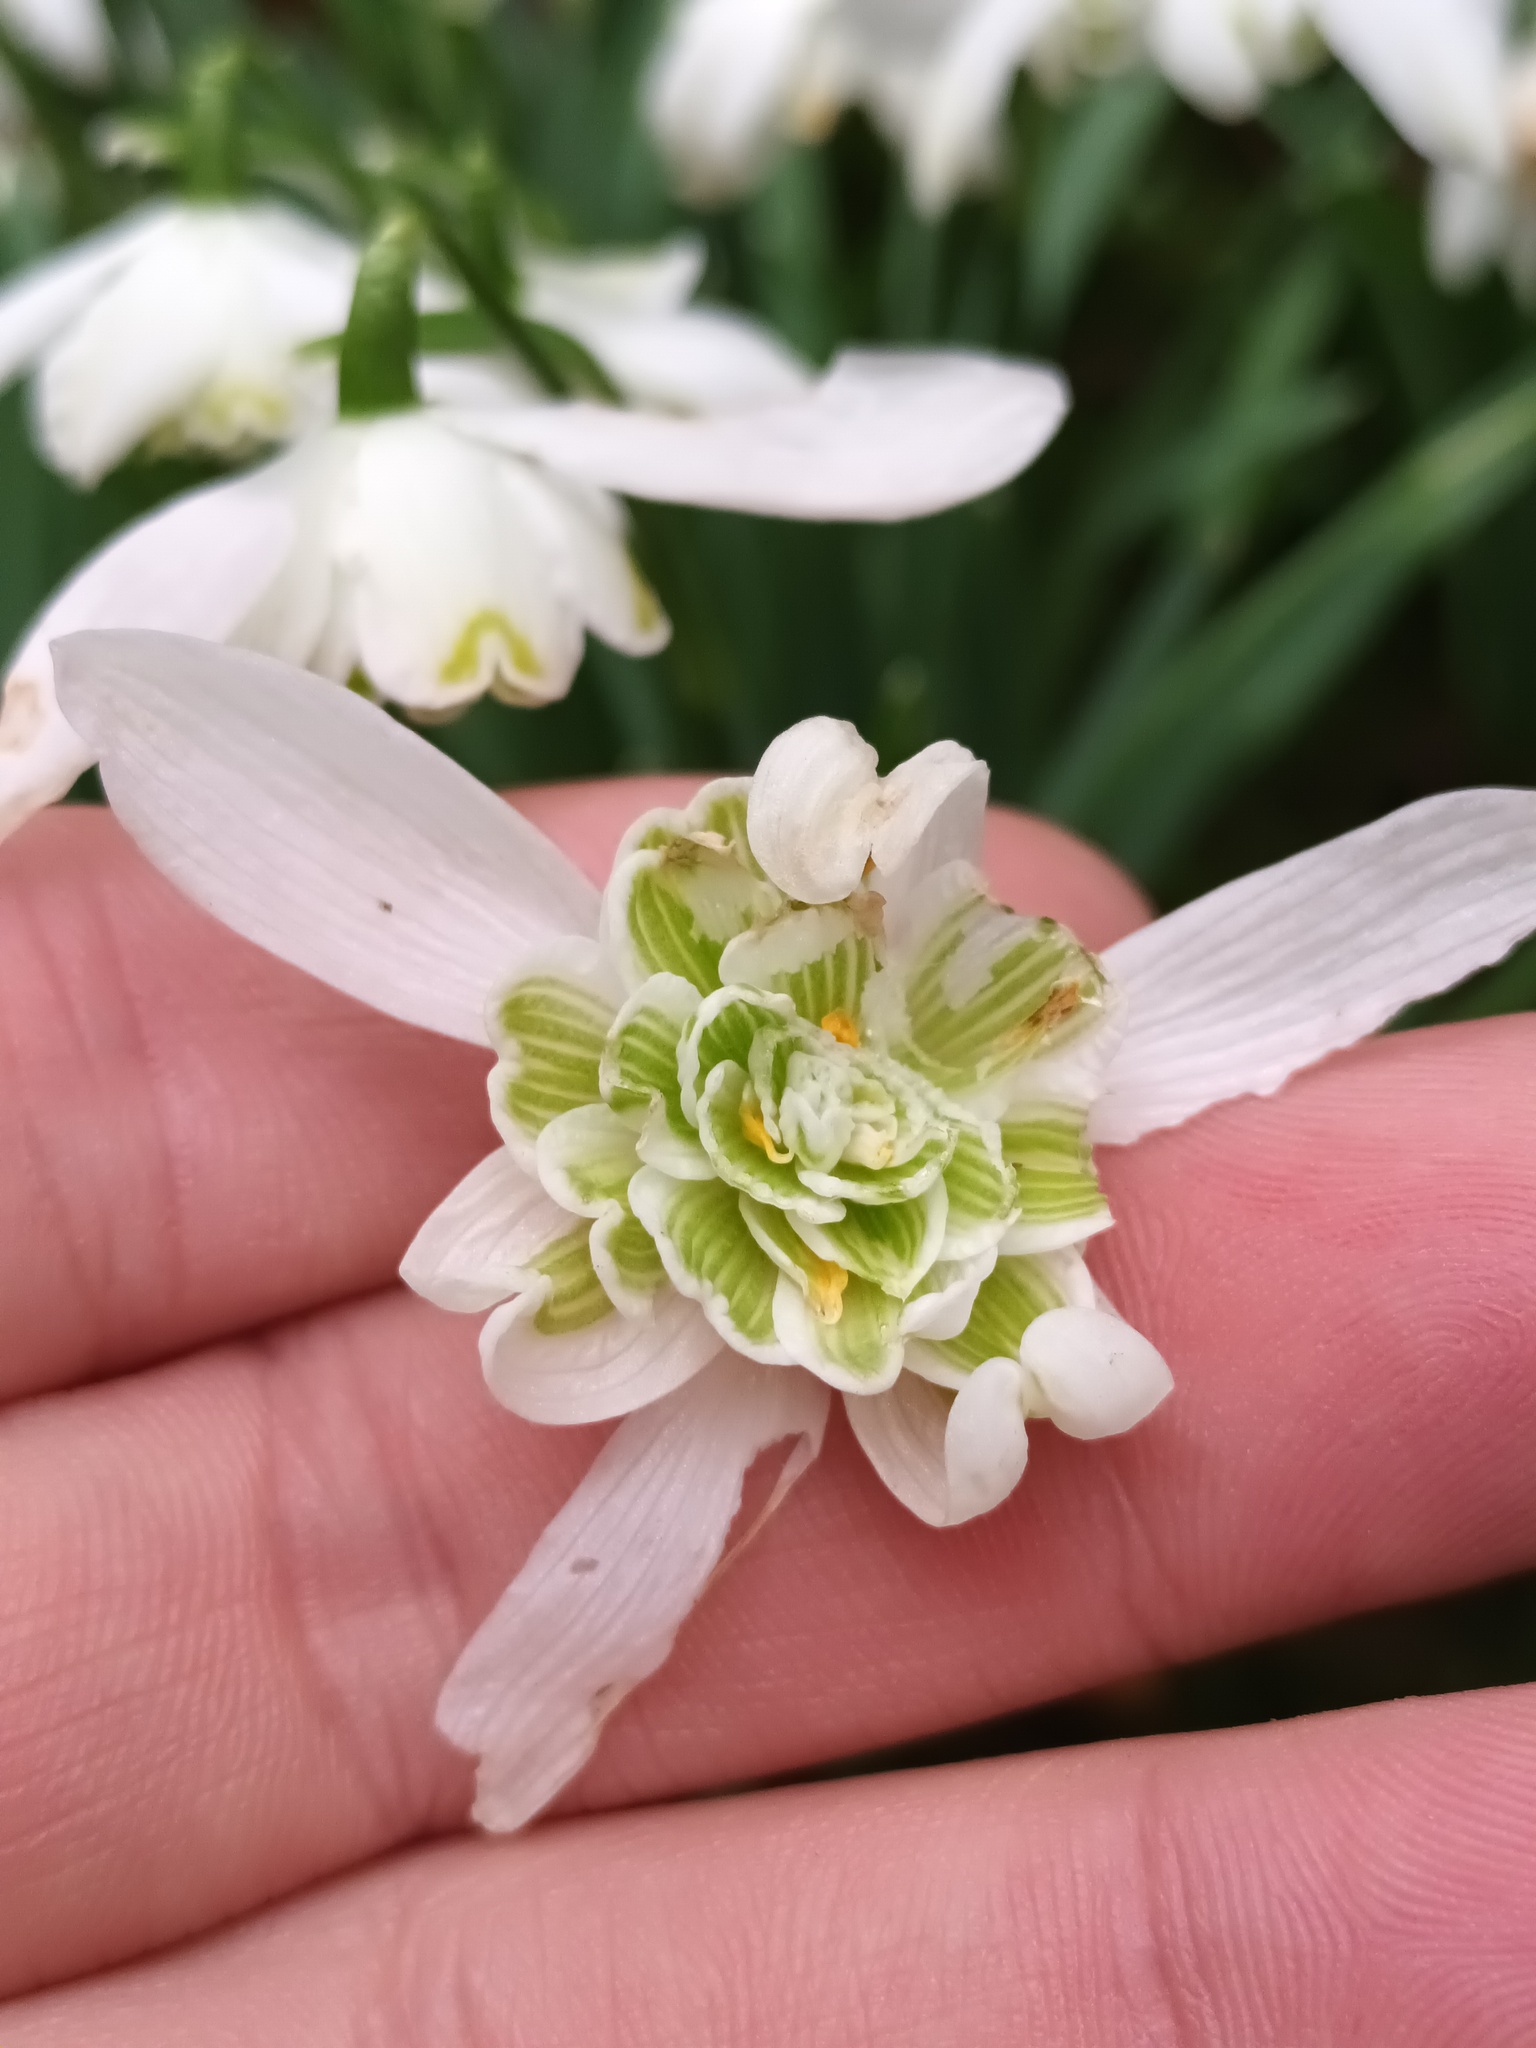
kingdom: Plantae
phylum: Tracheophyta
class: Liliopsida
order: Asparagales
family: Amaryllidaceae
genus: Galanthus
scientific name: Galanthus nivalis
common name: Snowdrop
